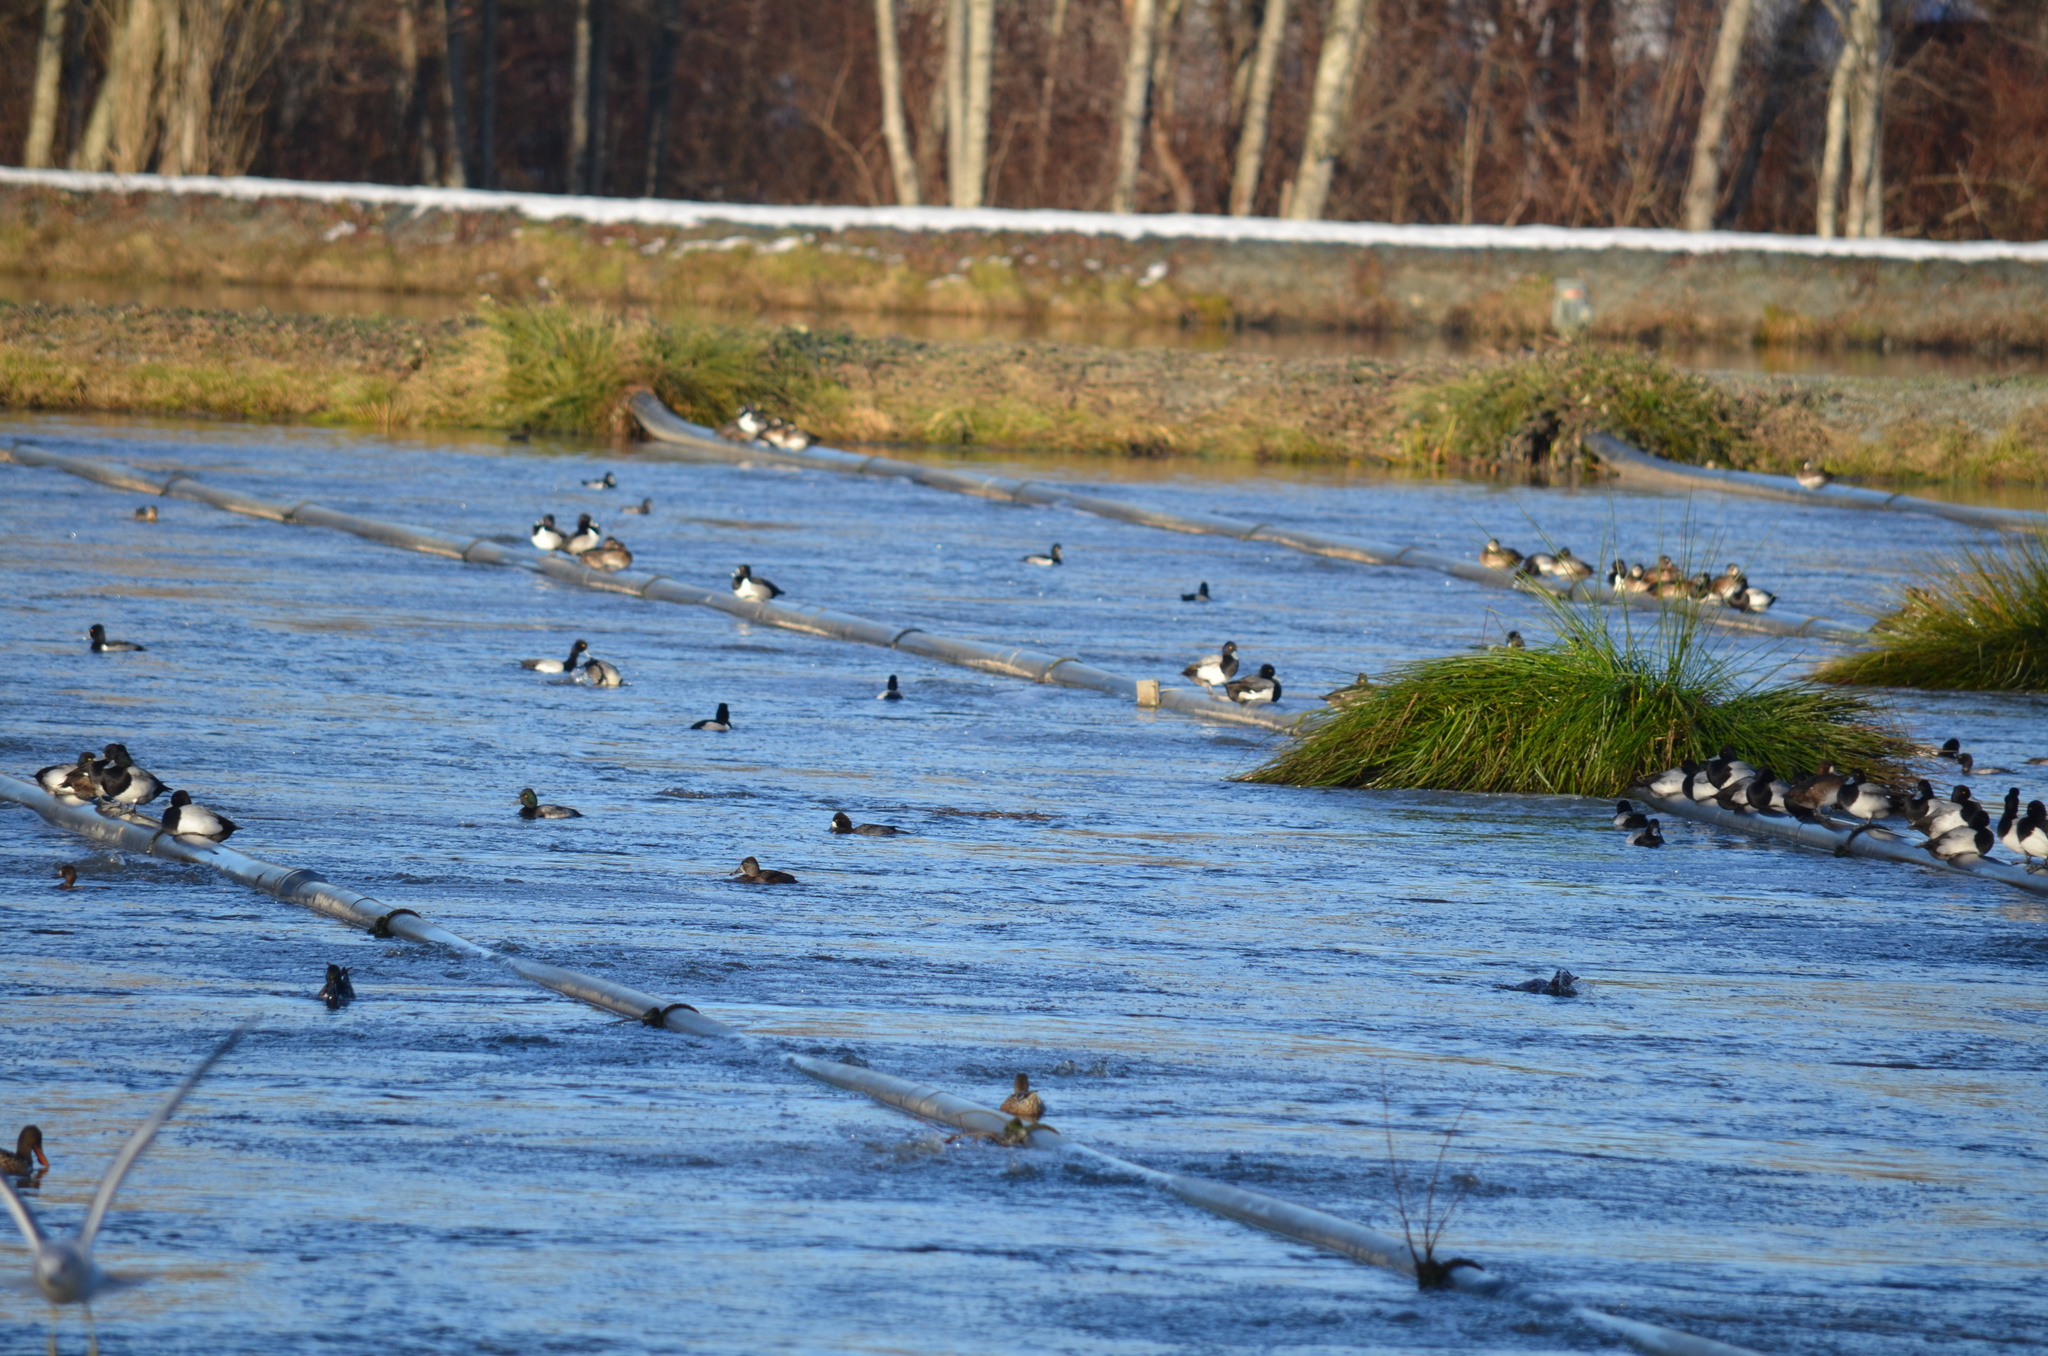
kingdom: Animalia
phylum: Chordata
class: Aves
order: Anseriformes
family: Anatidae
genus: Aythya
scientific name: Aythya affinis
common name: Lesser scaup
